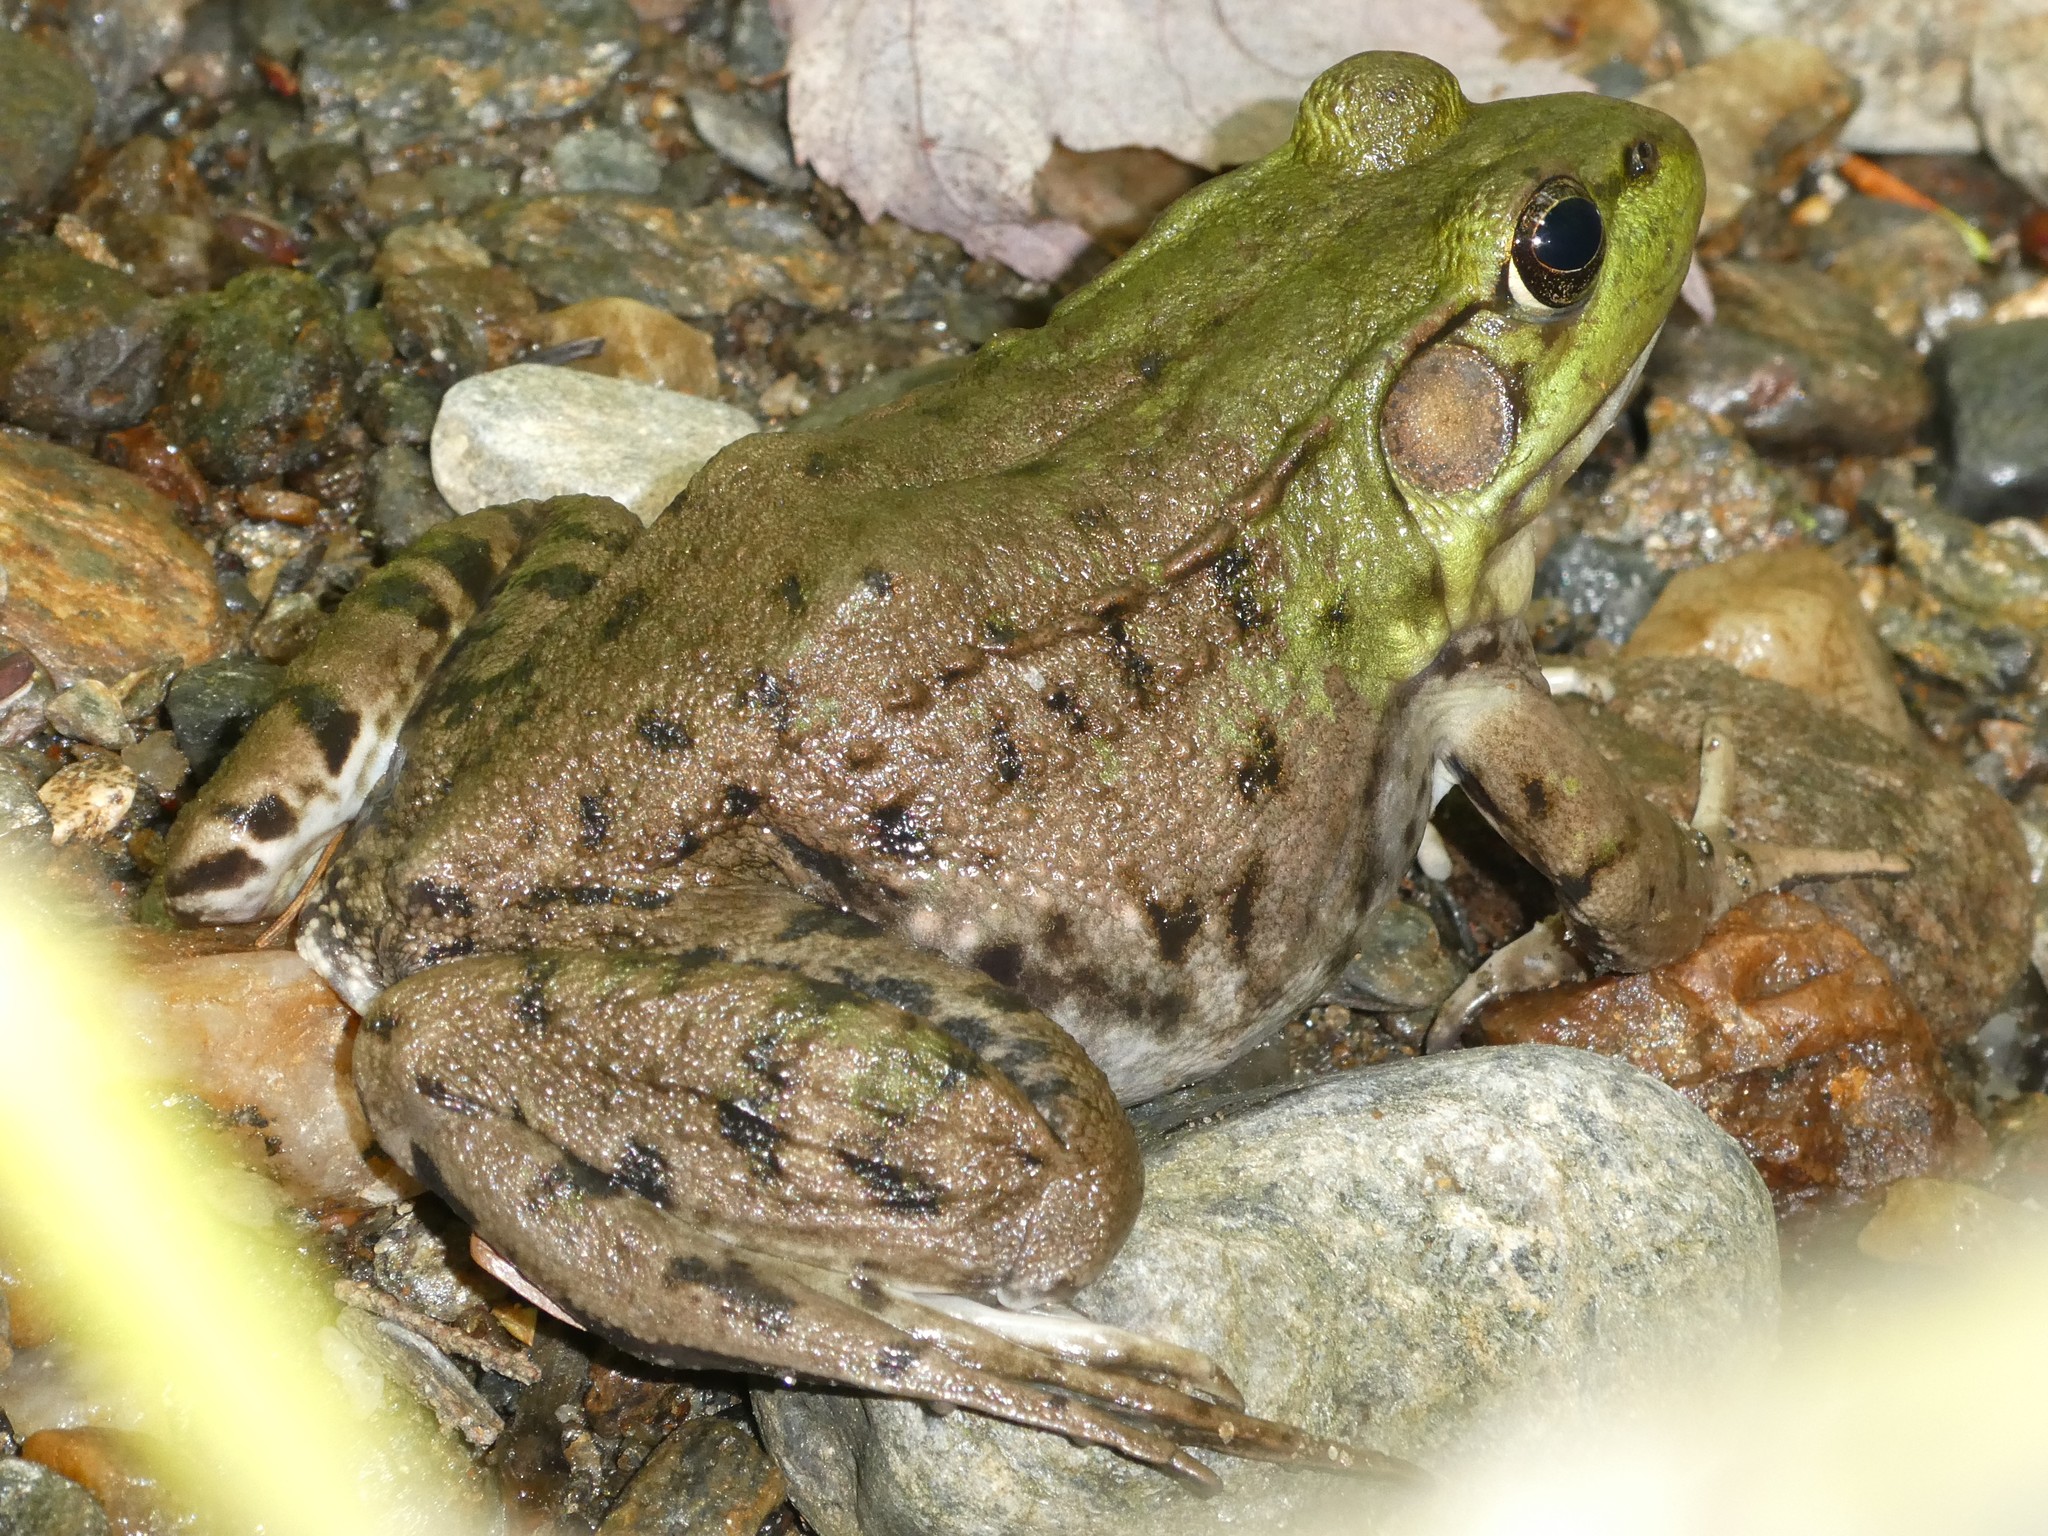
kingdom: Animalia
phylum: Chordata
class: Amphibia
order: Anura
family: Ranidae
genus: Lithobates
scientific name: Lithobates clamitans
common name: Green frog
